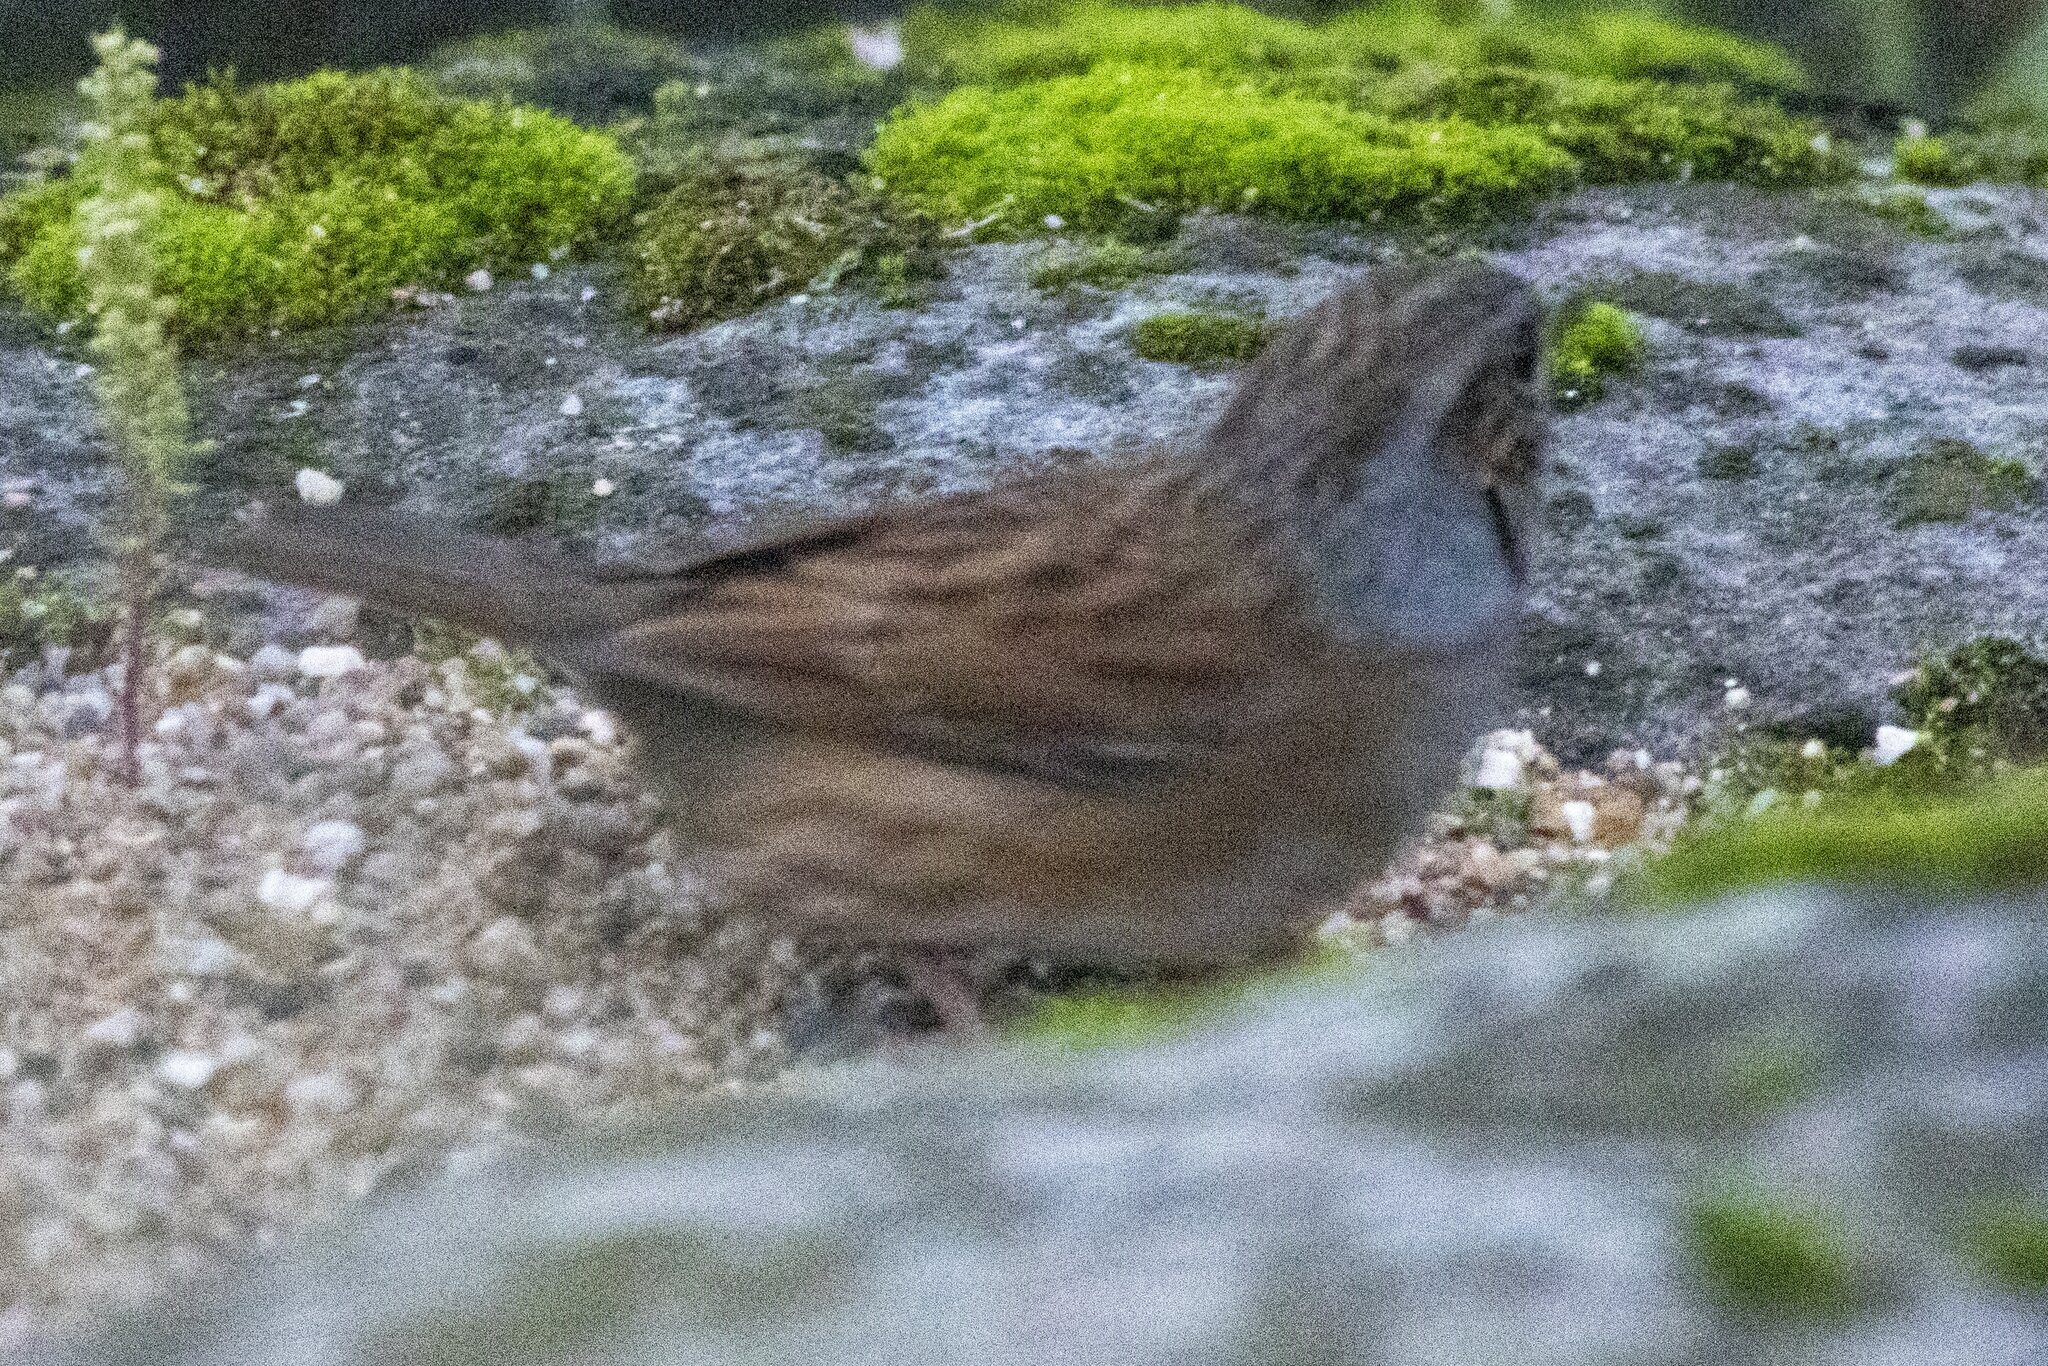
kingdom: Animalia
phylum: Chordata
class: Aves
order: Passeriformes
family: Prunellidae
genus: Prunella
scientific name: Prunella modularis
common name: Dunnock
